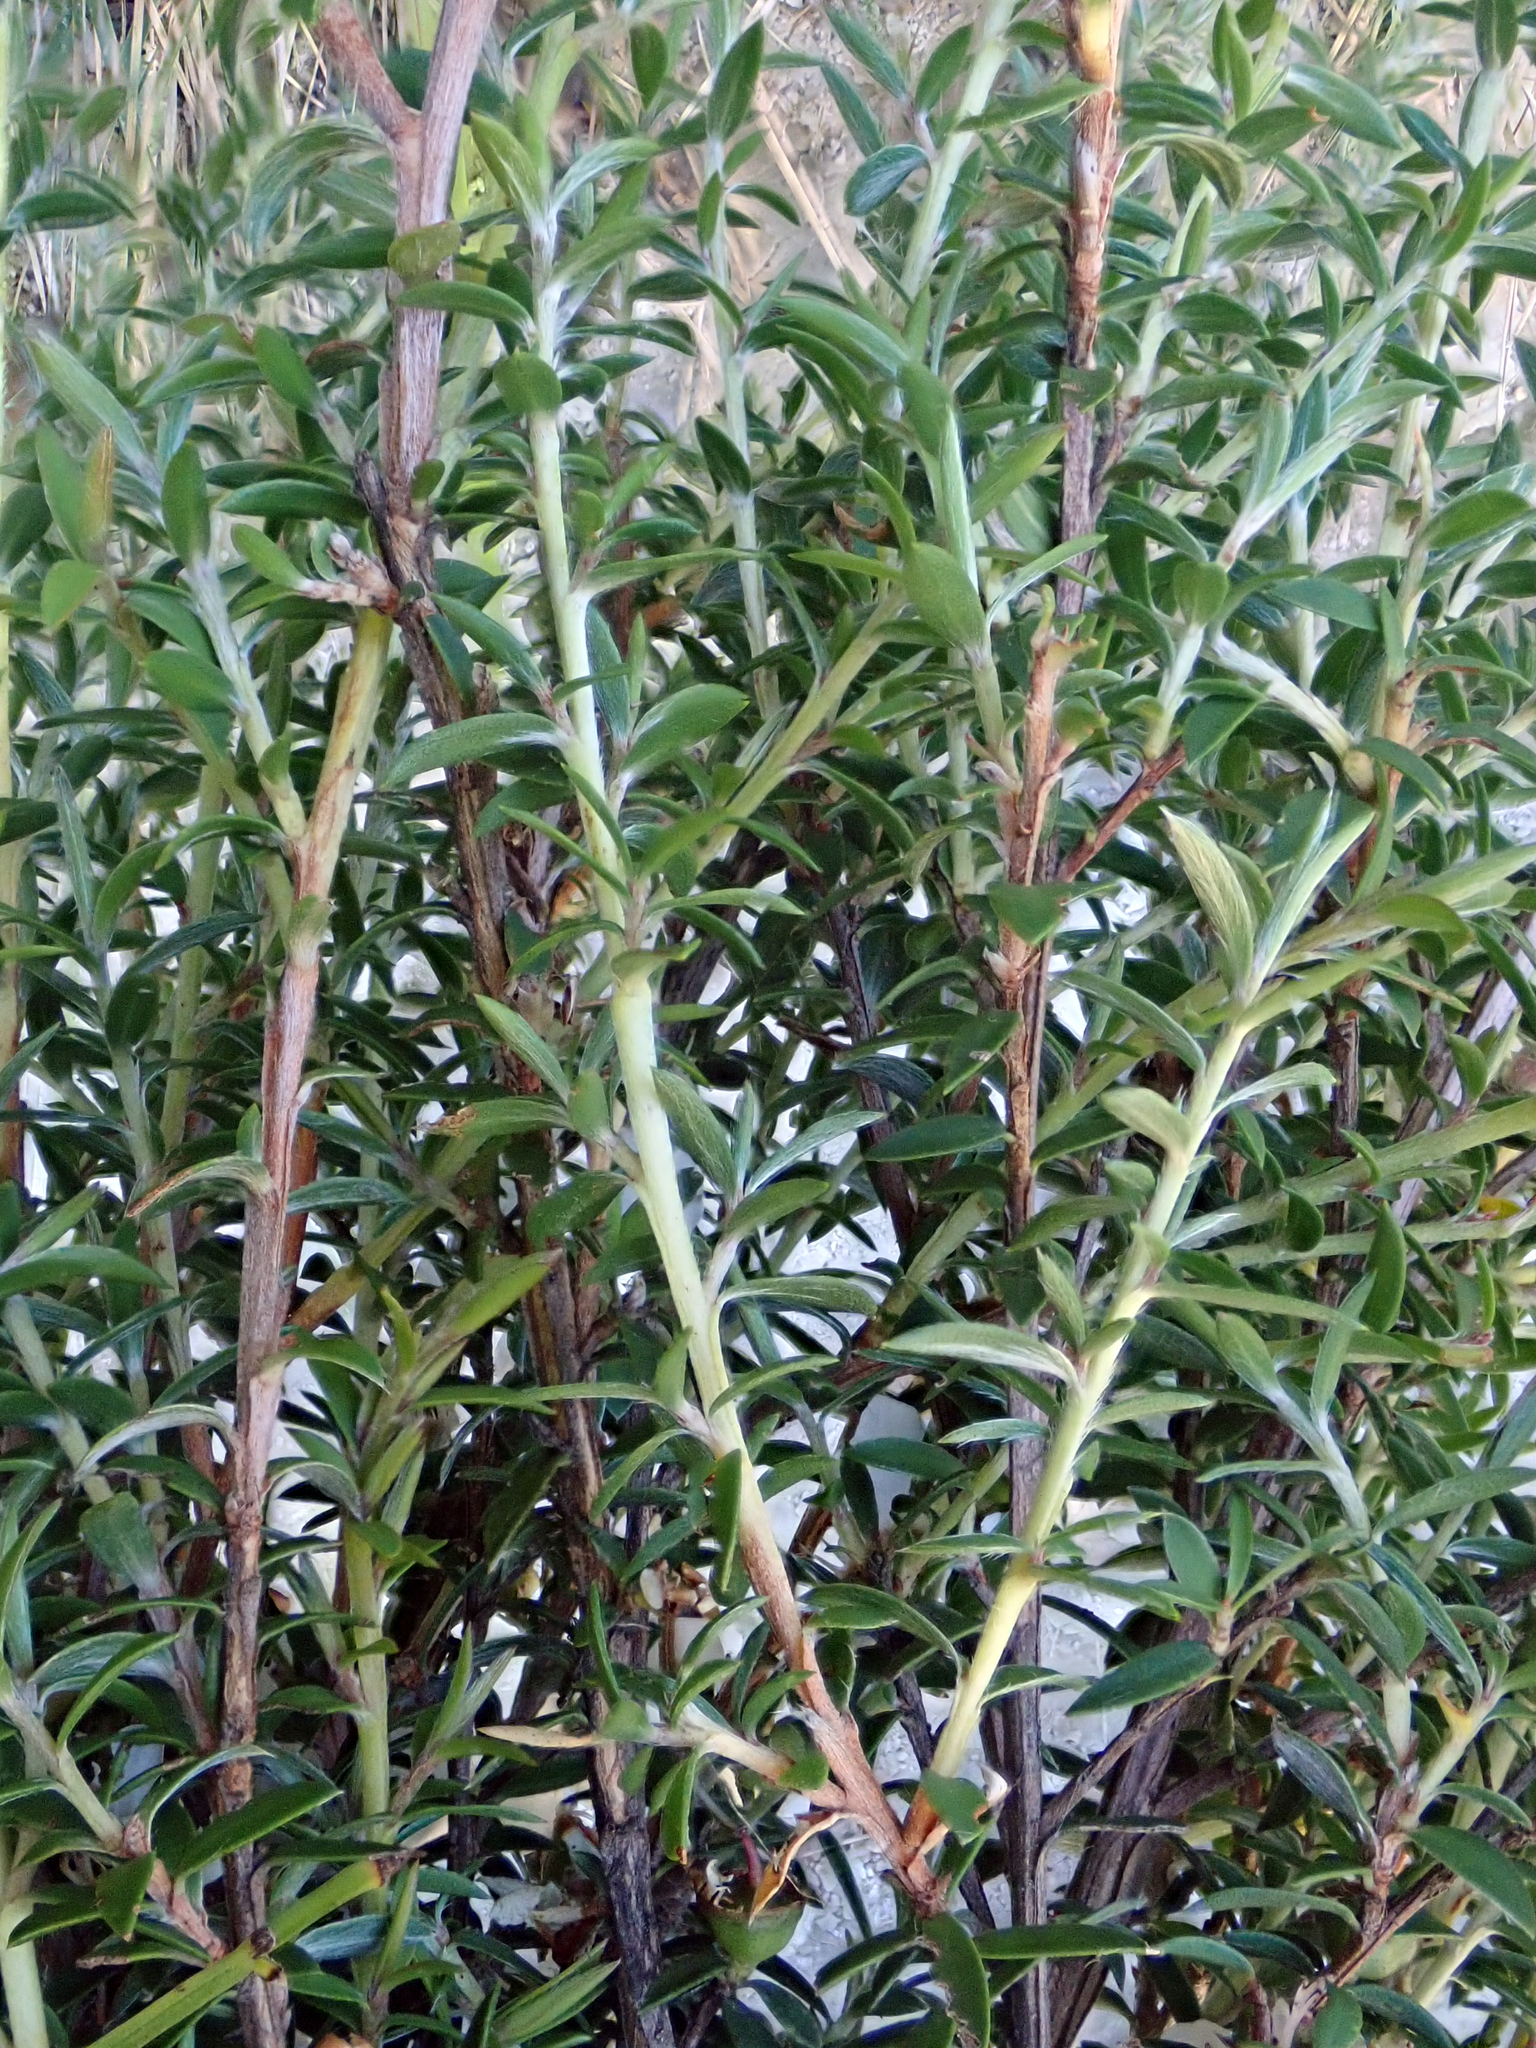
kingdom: Plantae
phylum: Tracheophyta
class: Magnoliopsida
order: Myrtales
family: Myrtaceae
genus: Leptospermum
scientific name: Leptospermum scoparium
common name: Broom tea-tree
